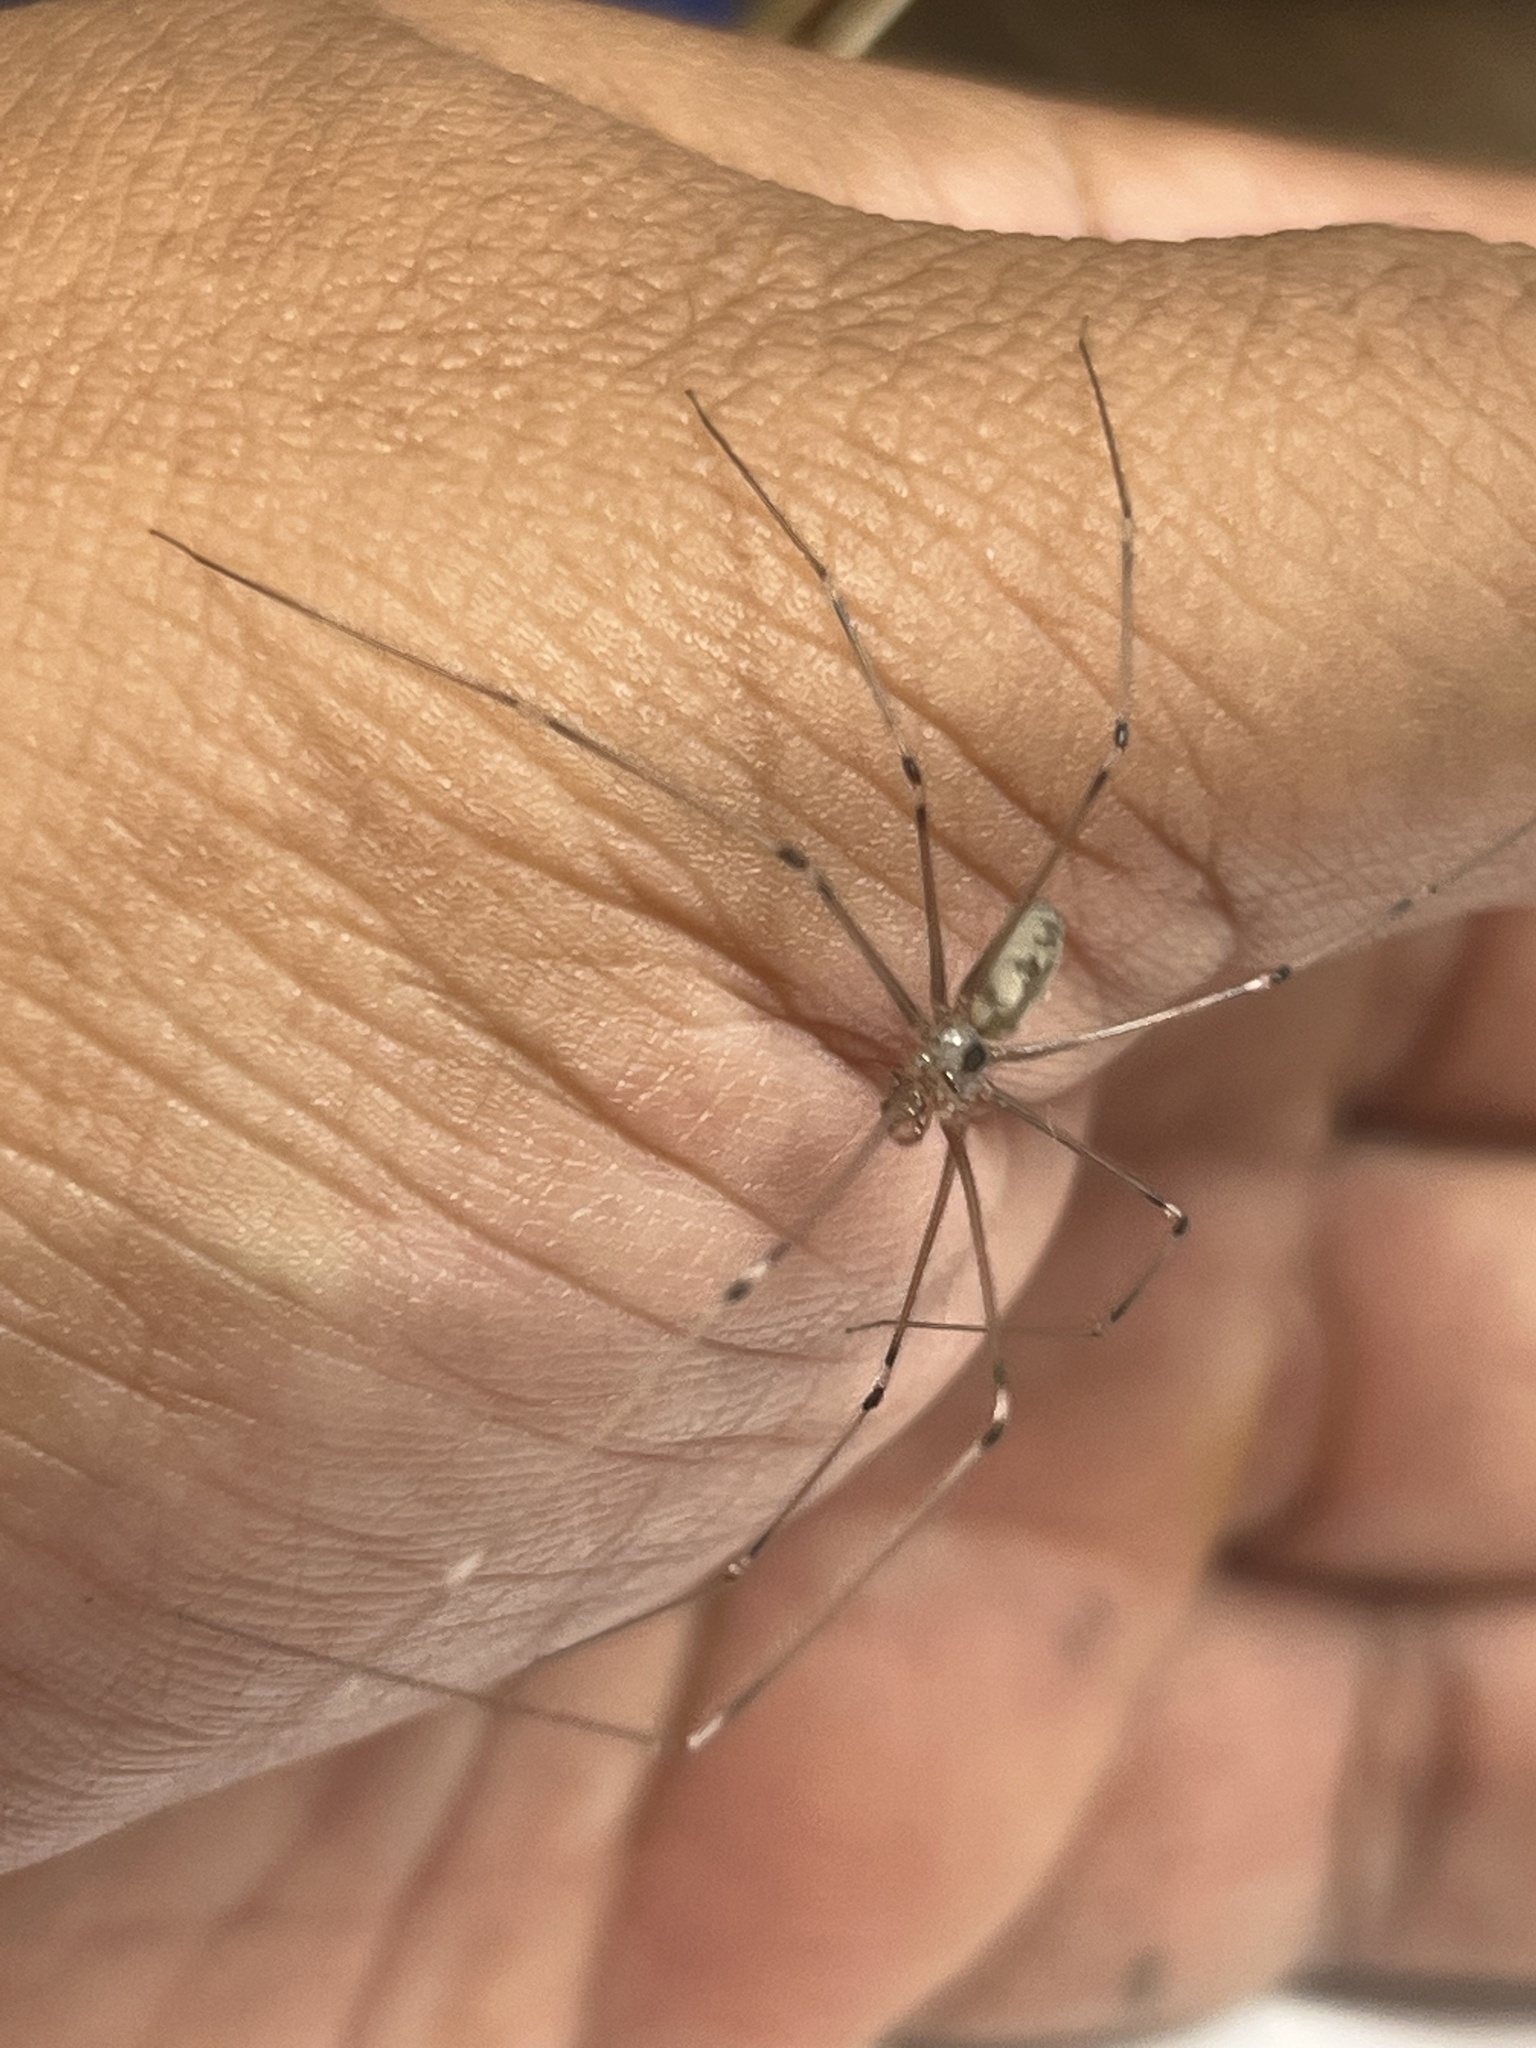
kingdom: Animalia
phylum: Arthropoda
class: Arachnida
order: Araneae
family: Pholcidae
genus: Pholcus
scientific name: Pholcus phalangioides
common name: Longbodied cellar spider
